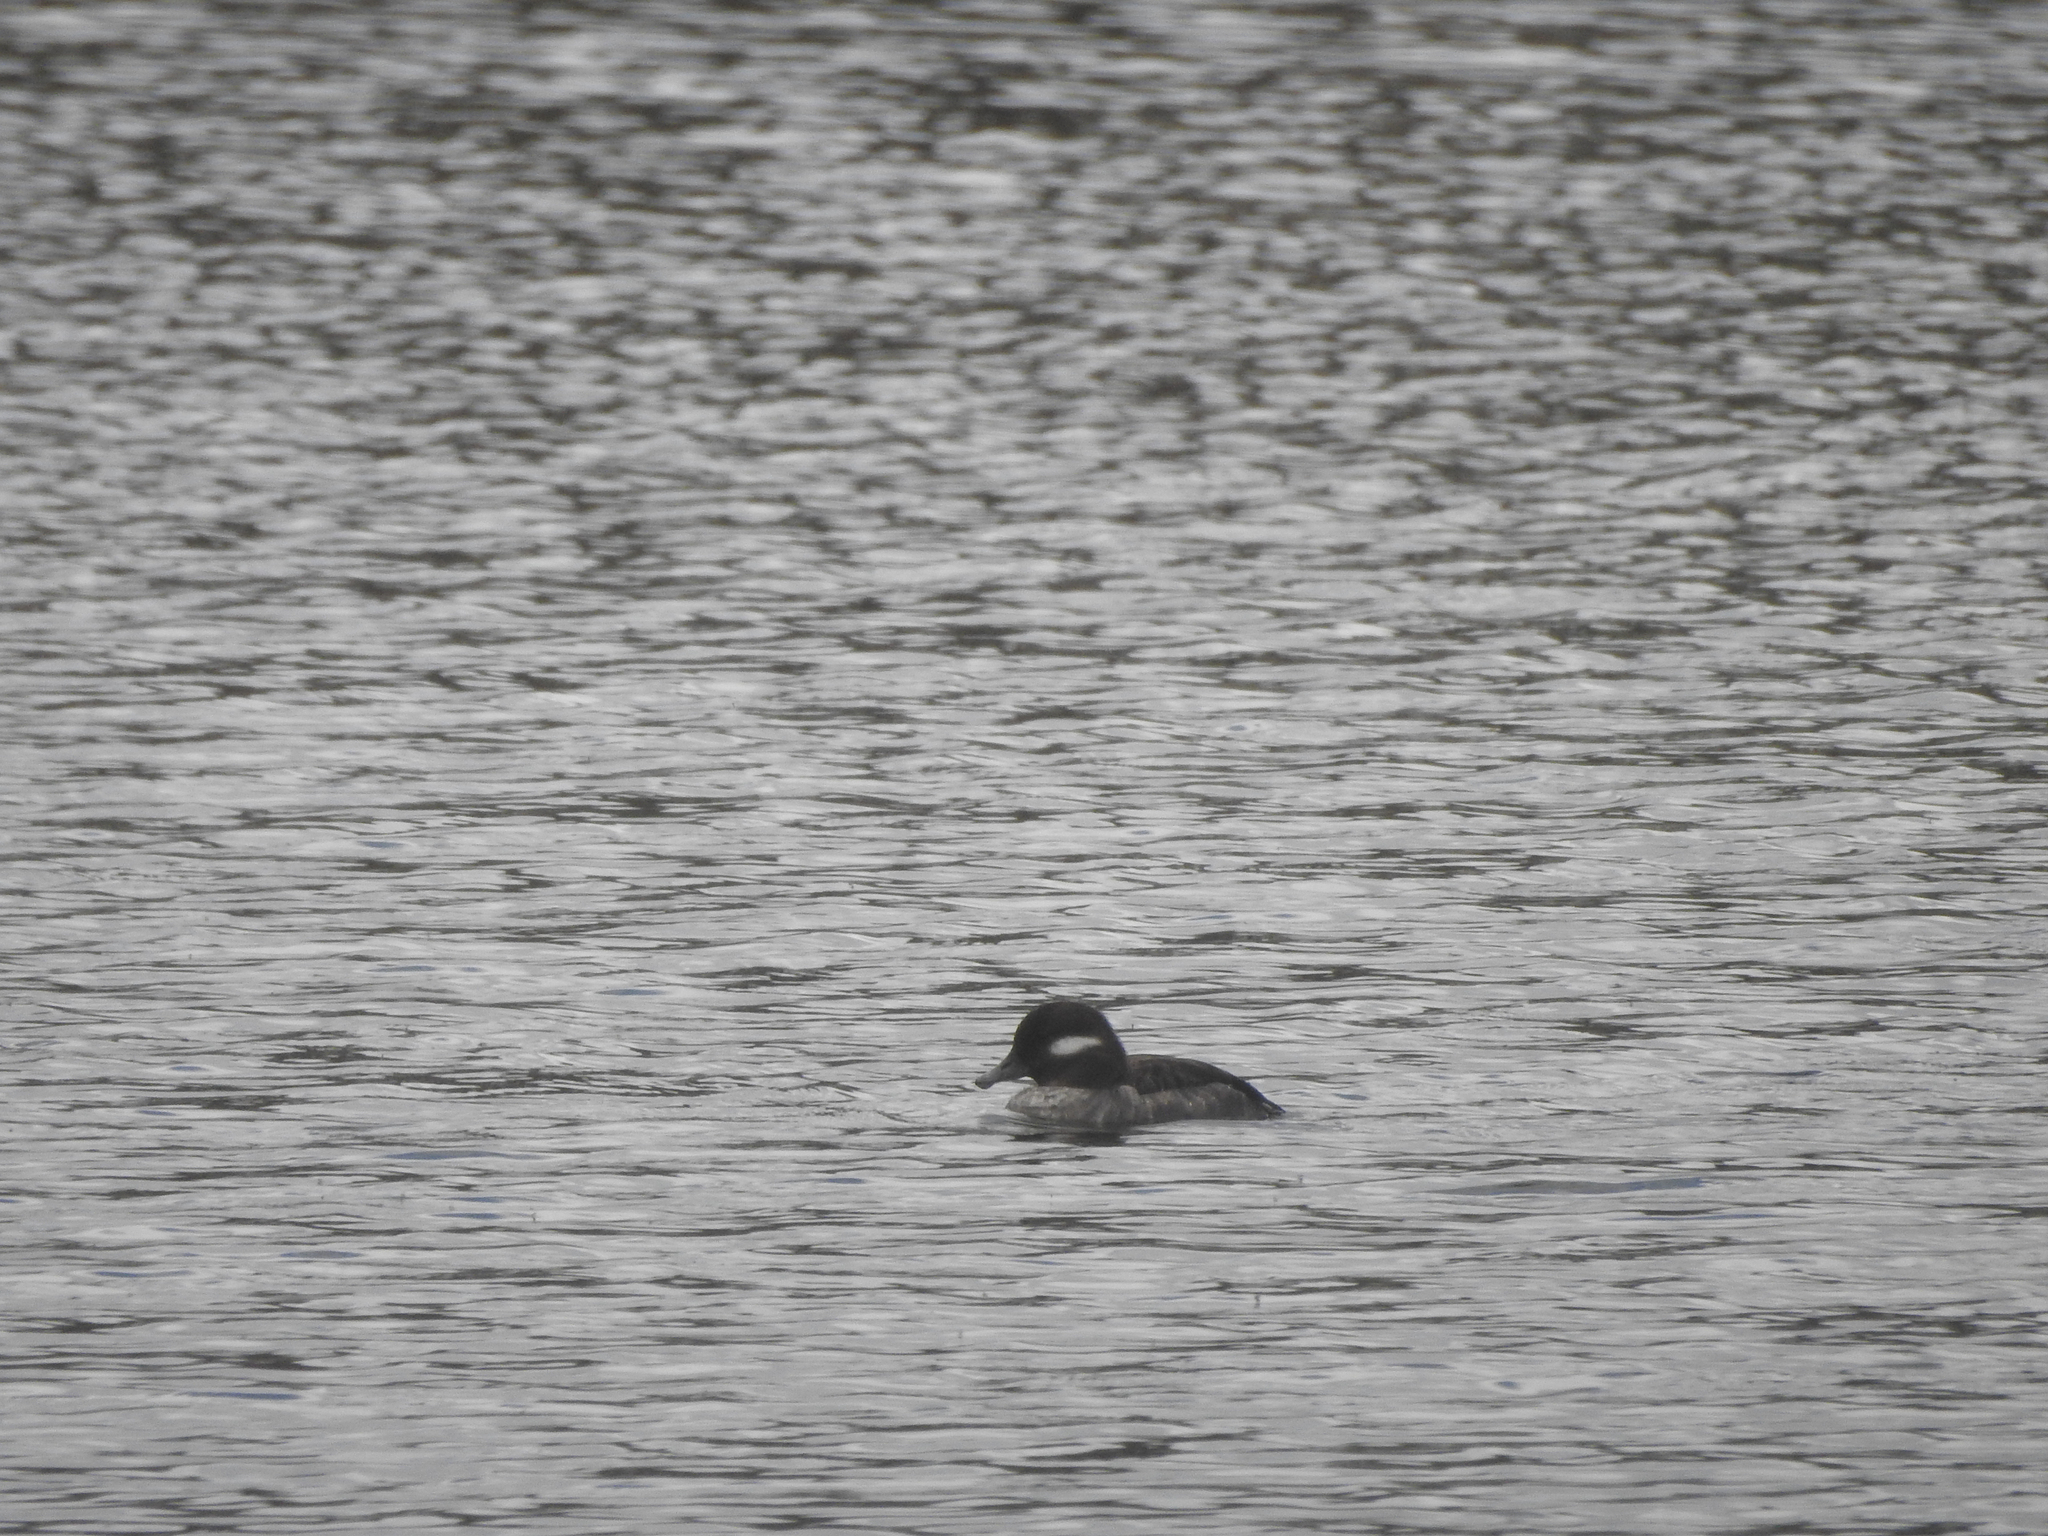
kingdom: Animalia
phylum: Chordata
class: Aves
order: Anseriformes
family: Anatidae
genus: Bucephala
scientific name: Bucephala albeola
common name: Bufflehead
